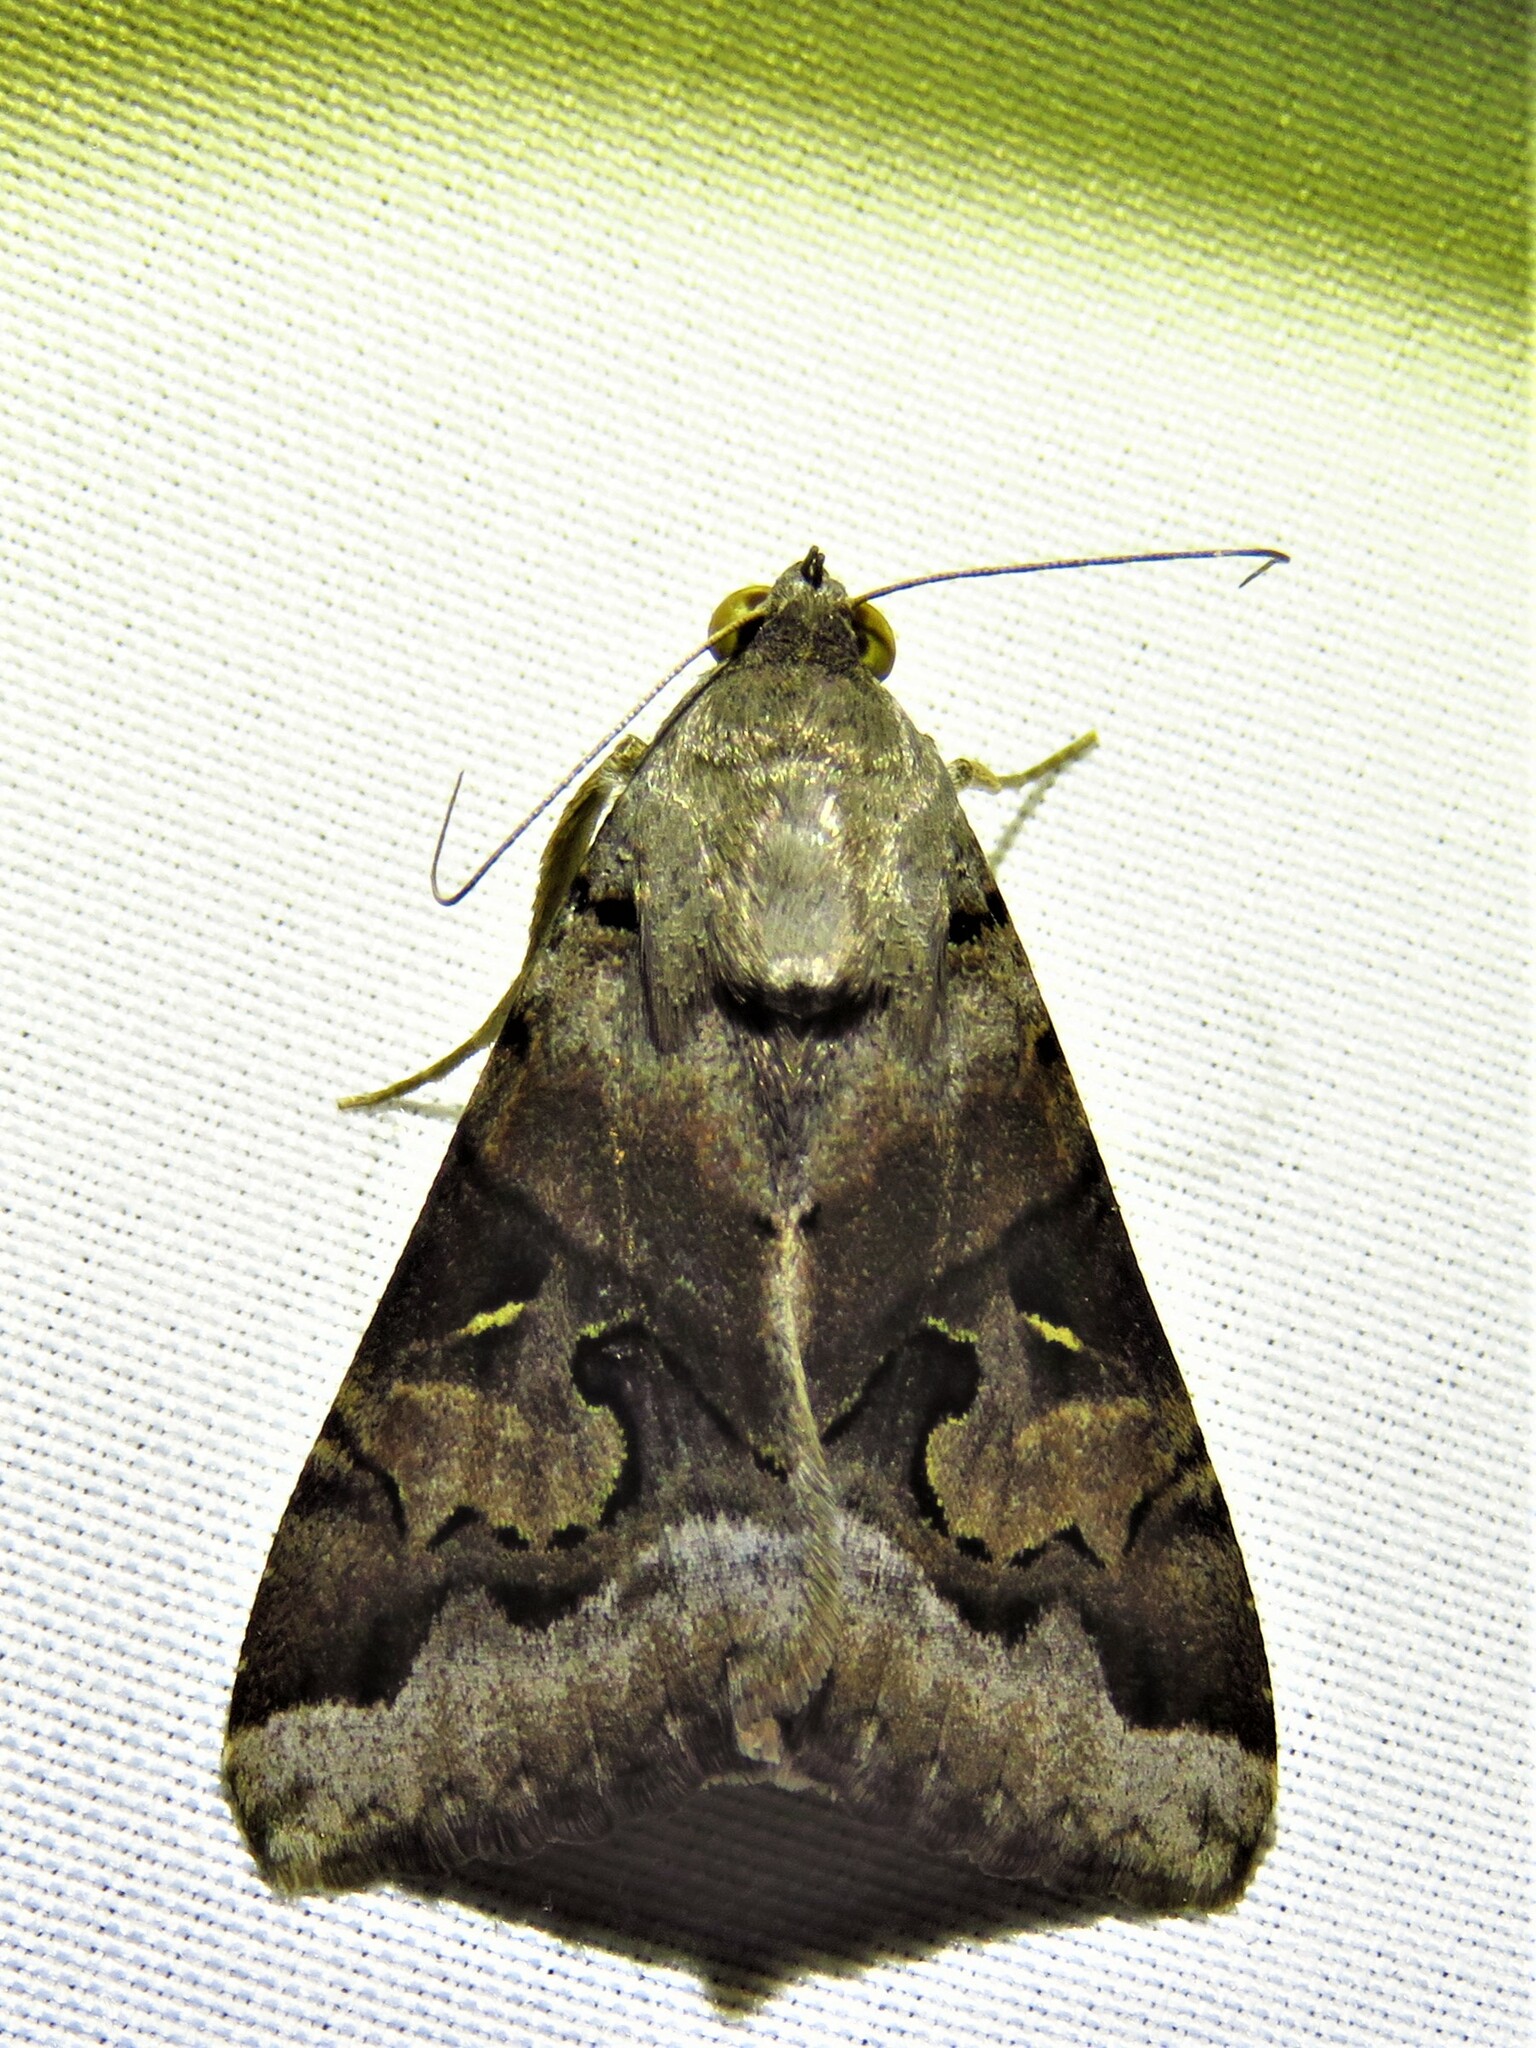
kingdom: Animalia
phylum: Arthropoda
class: Insecta
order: Lepidoptera
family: Erebidae
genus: Melipotis
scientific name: Melipotis indomita
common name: Moth
